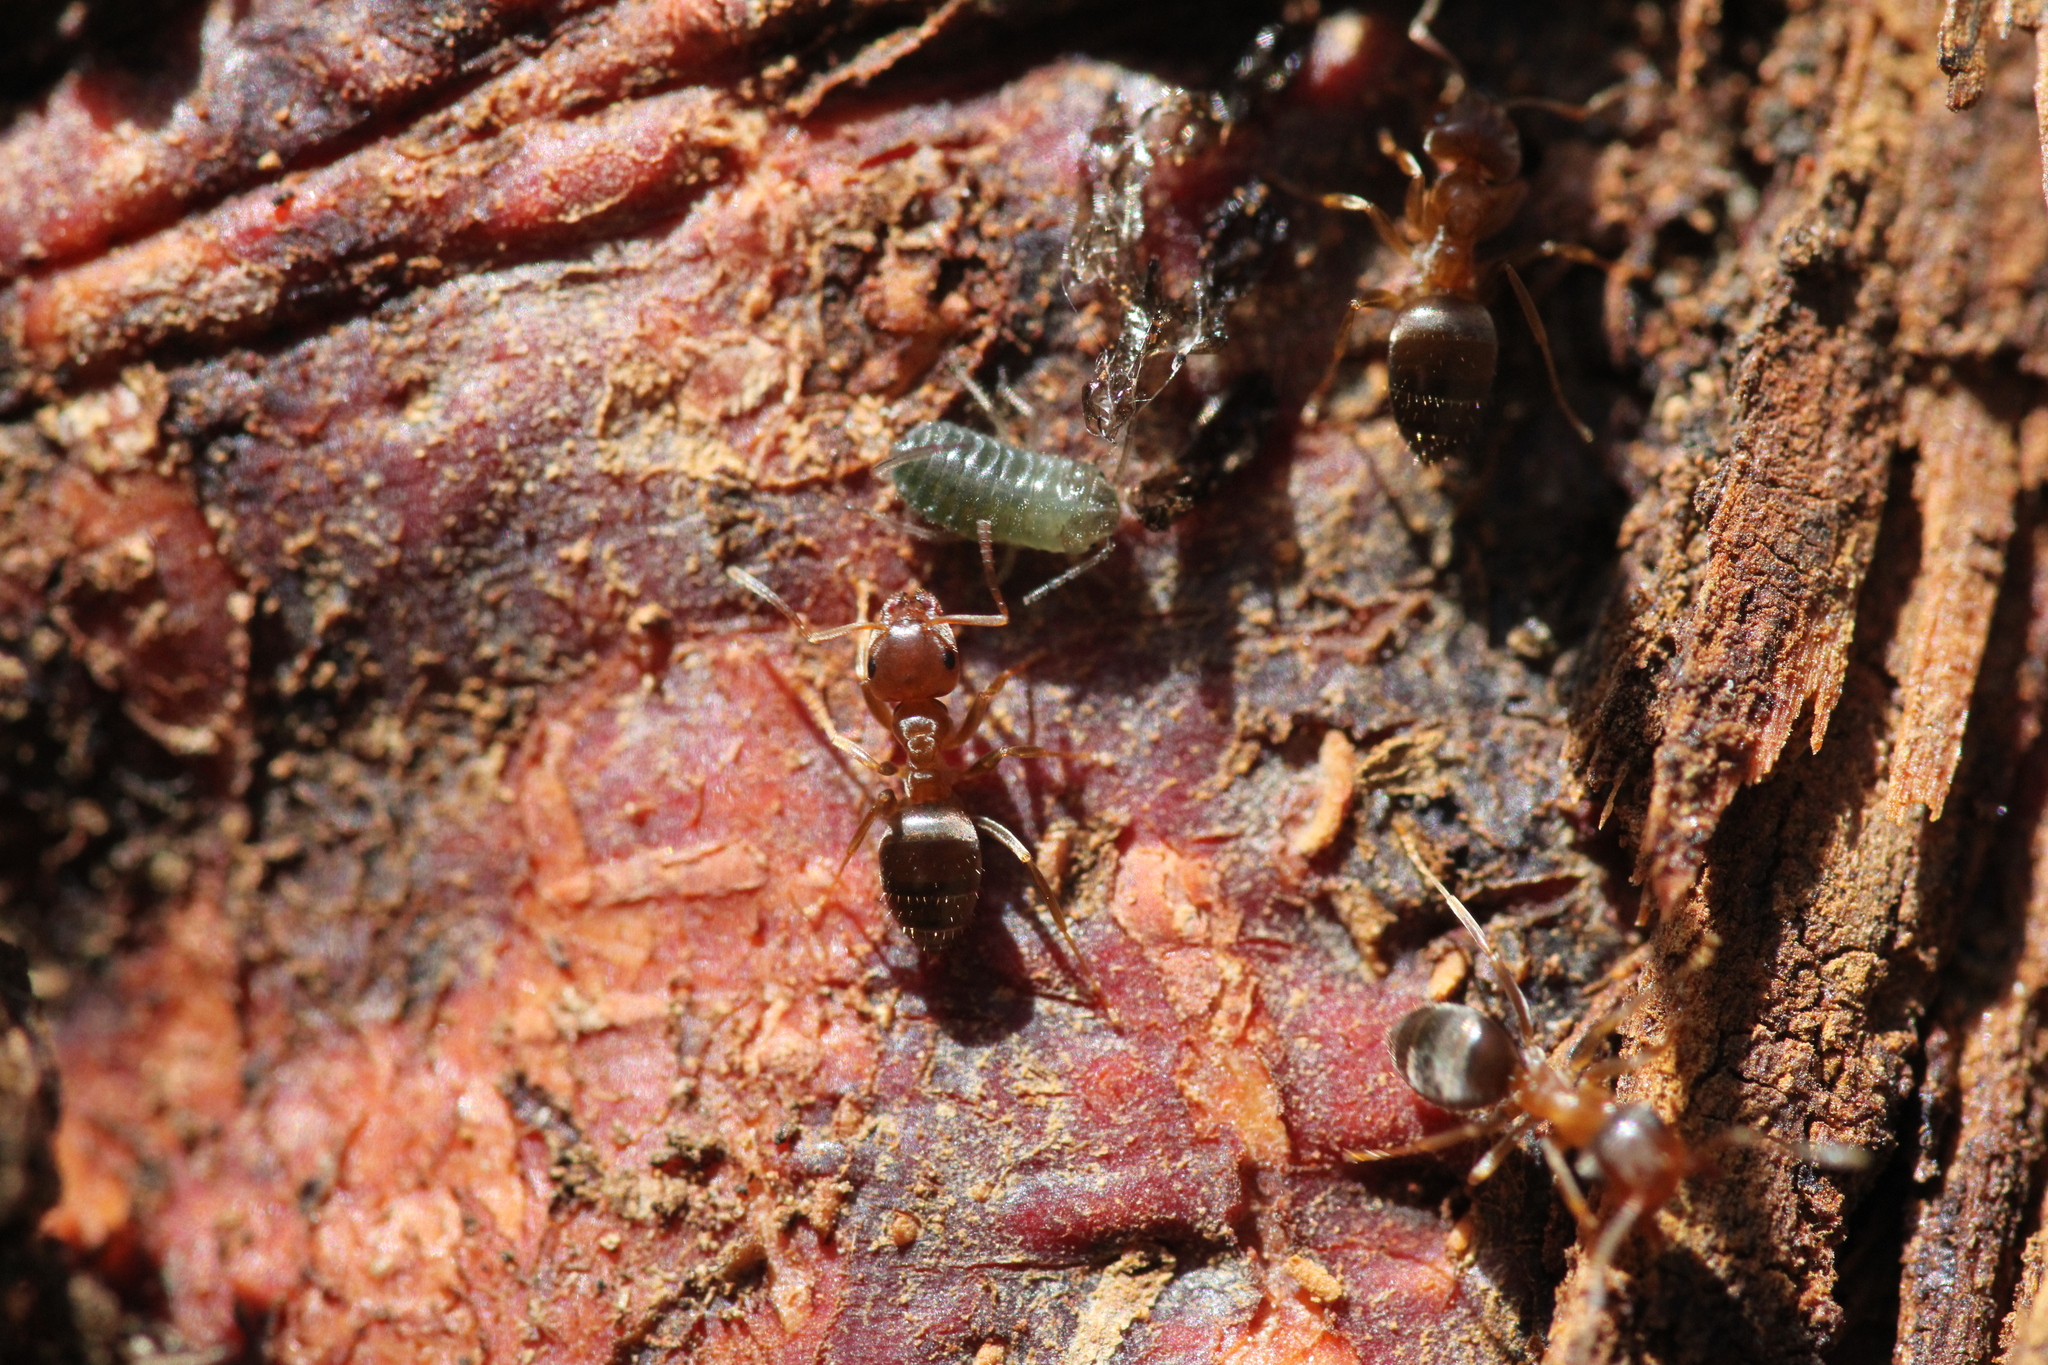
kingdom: Animalia
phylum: Arthropoda
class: Insecta
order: Hymenoptera
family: Formicidae
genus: Lasius
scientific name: Lasius brunneus
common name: Brown ant
